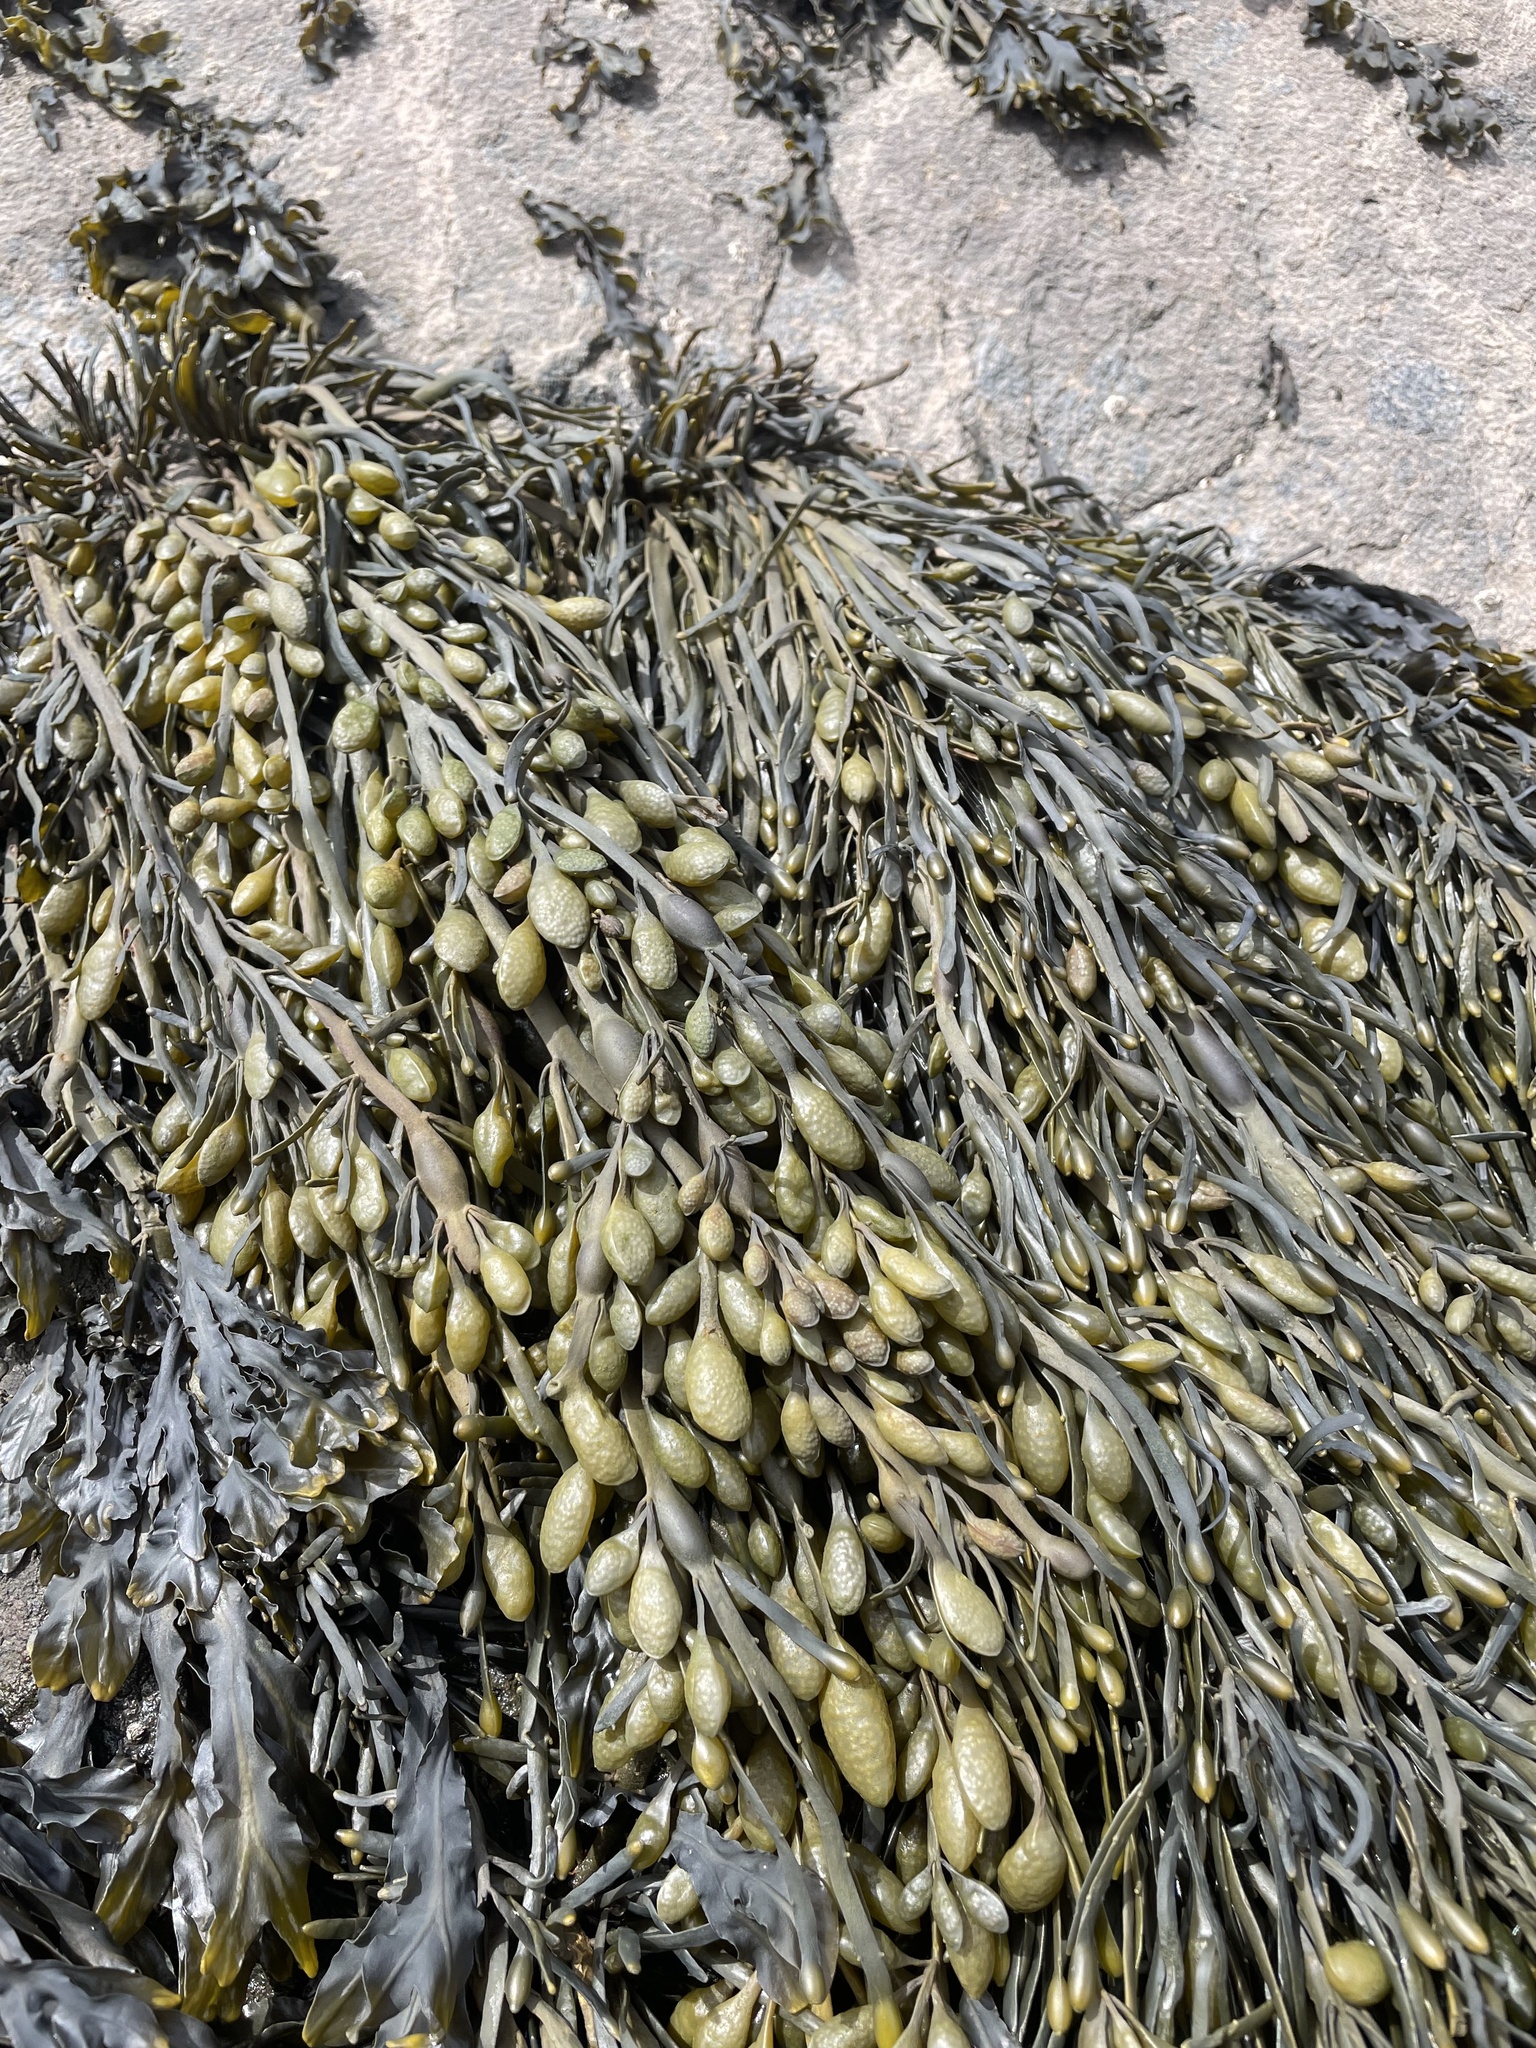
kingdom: Chromista
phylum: Ochrophyta
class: Phaeophyceae
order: Fucales
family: Fucaceae
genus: Ascophyllum
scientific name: Ascophyllum nodosum
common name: Knotted wrack
